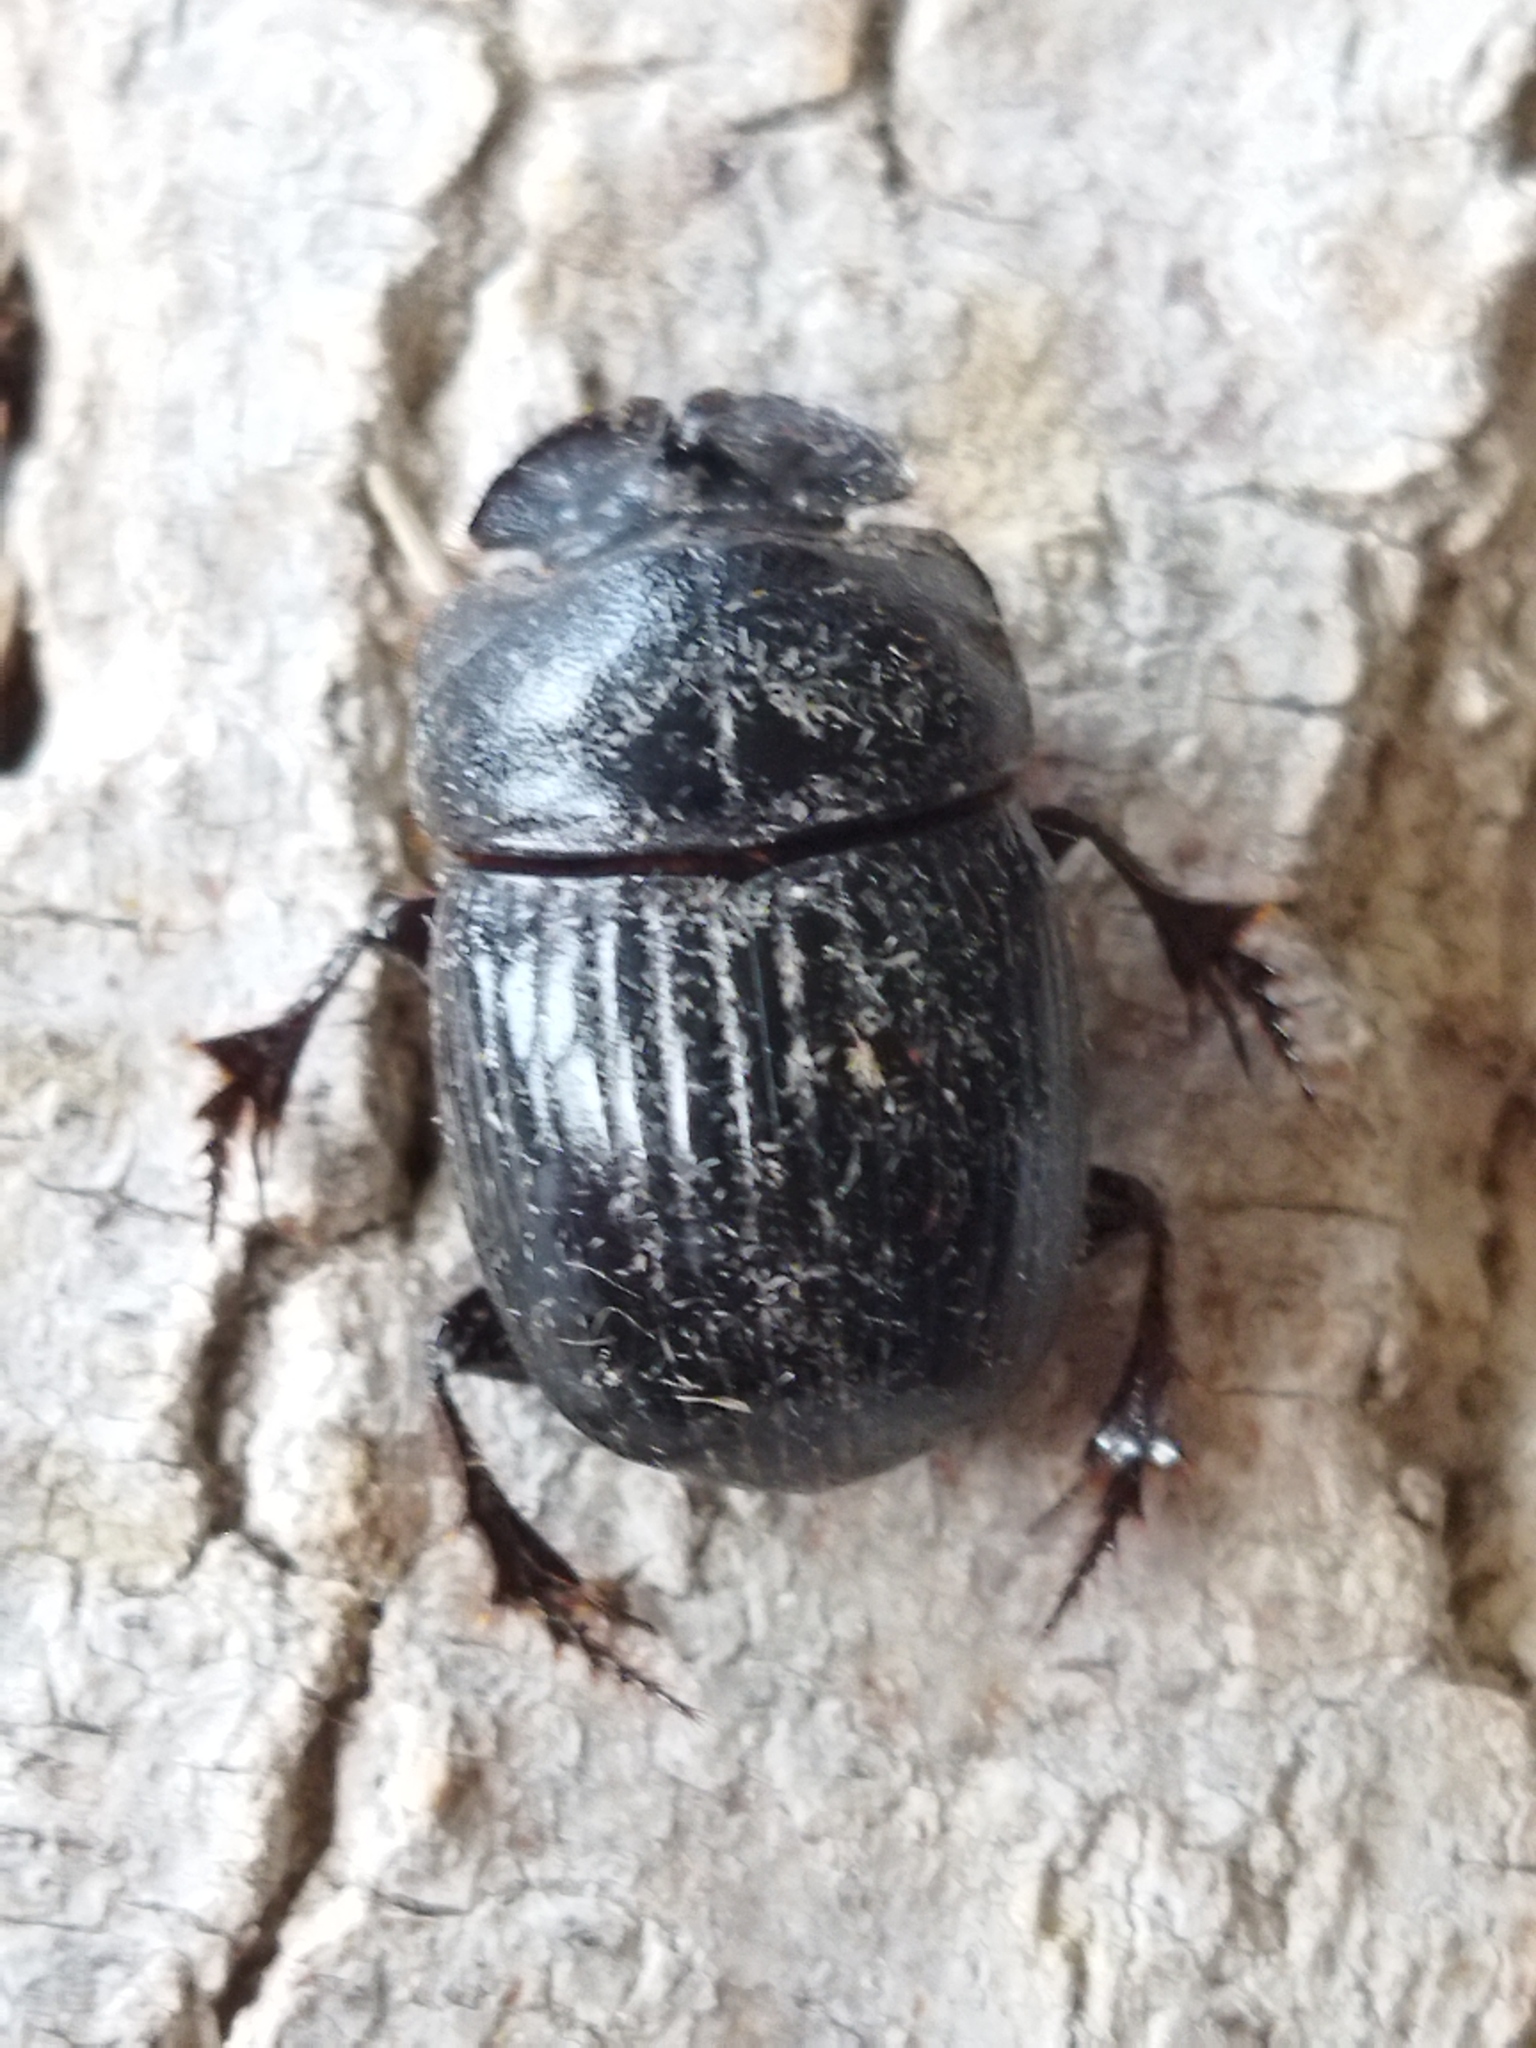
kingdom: Animalia
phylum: Arthropoda
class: Insecta
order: Coleoptera
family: Scarabaeidae
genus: Copris
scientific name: Copris lunaris
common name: Horned dung beetle
